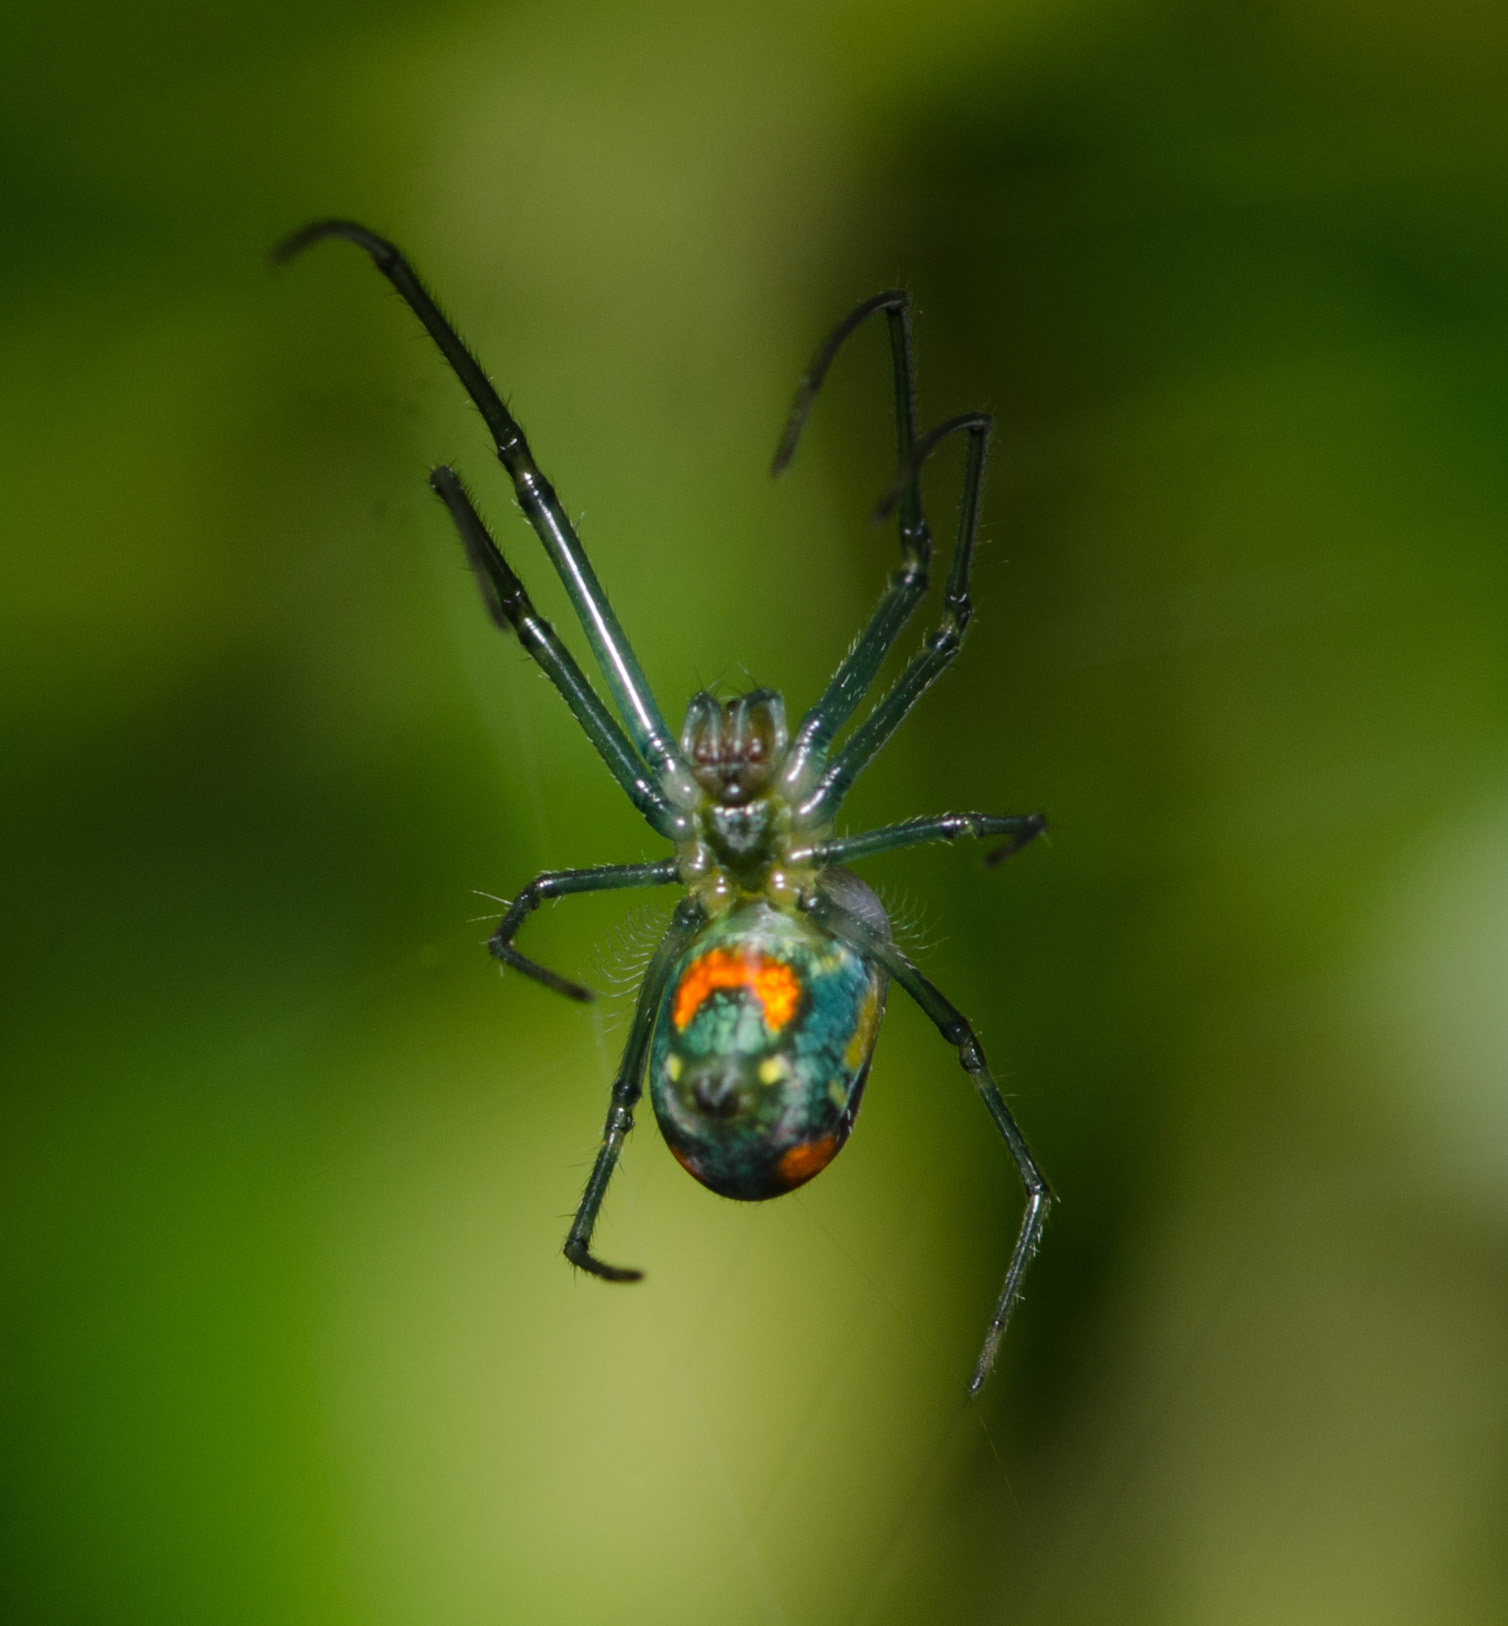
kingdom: Animalia
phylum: Arthropoda
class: Arachnida
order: Araneae
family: Tetragnathidae
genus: Leucauge
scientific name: Leucauge argyrobapta
